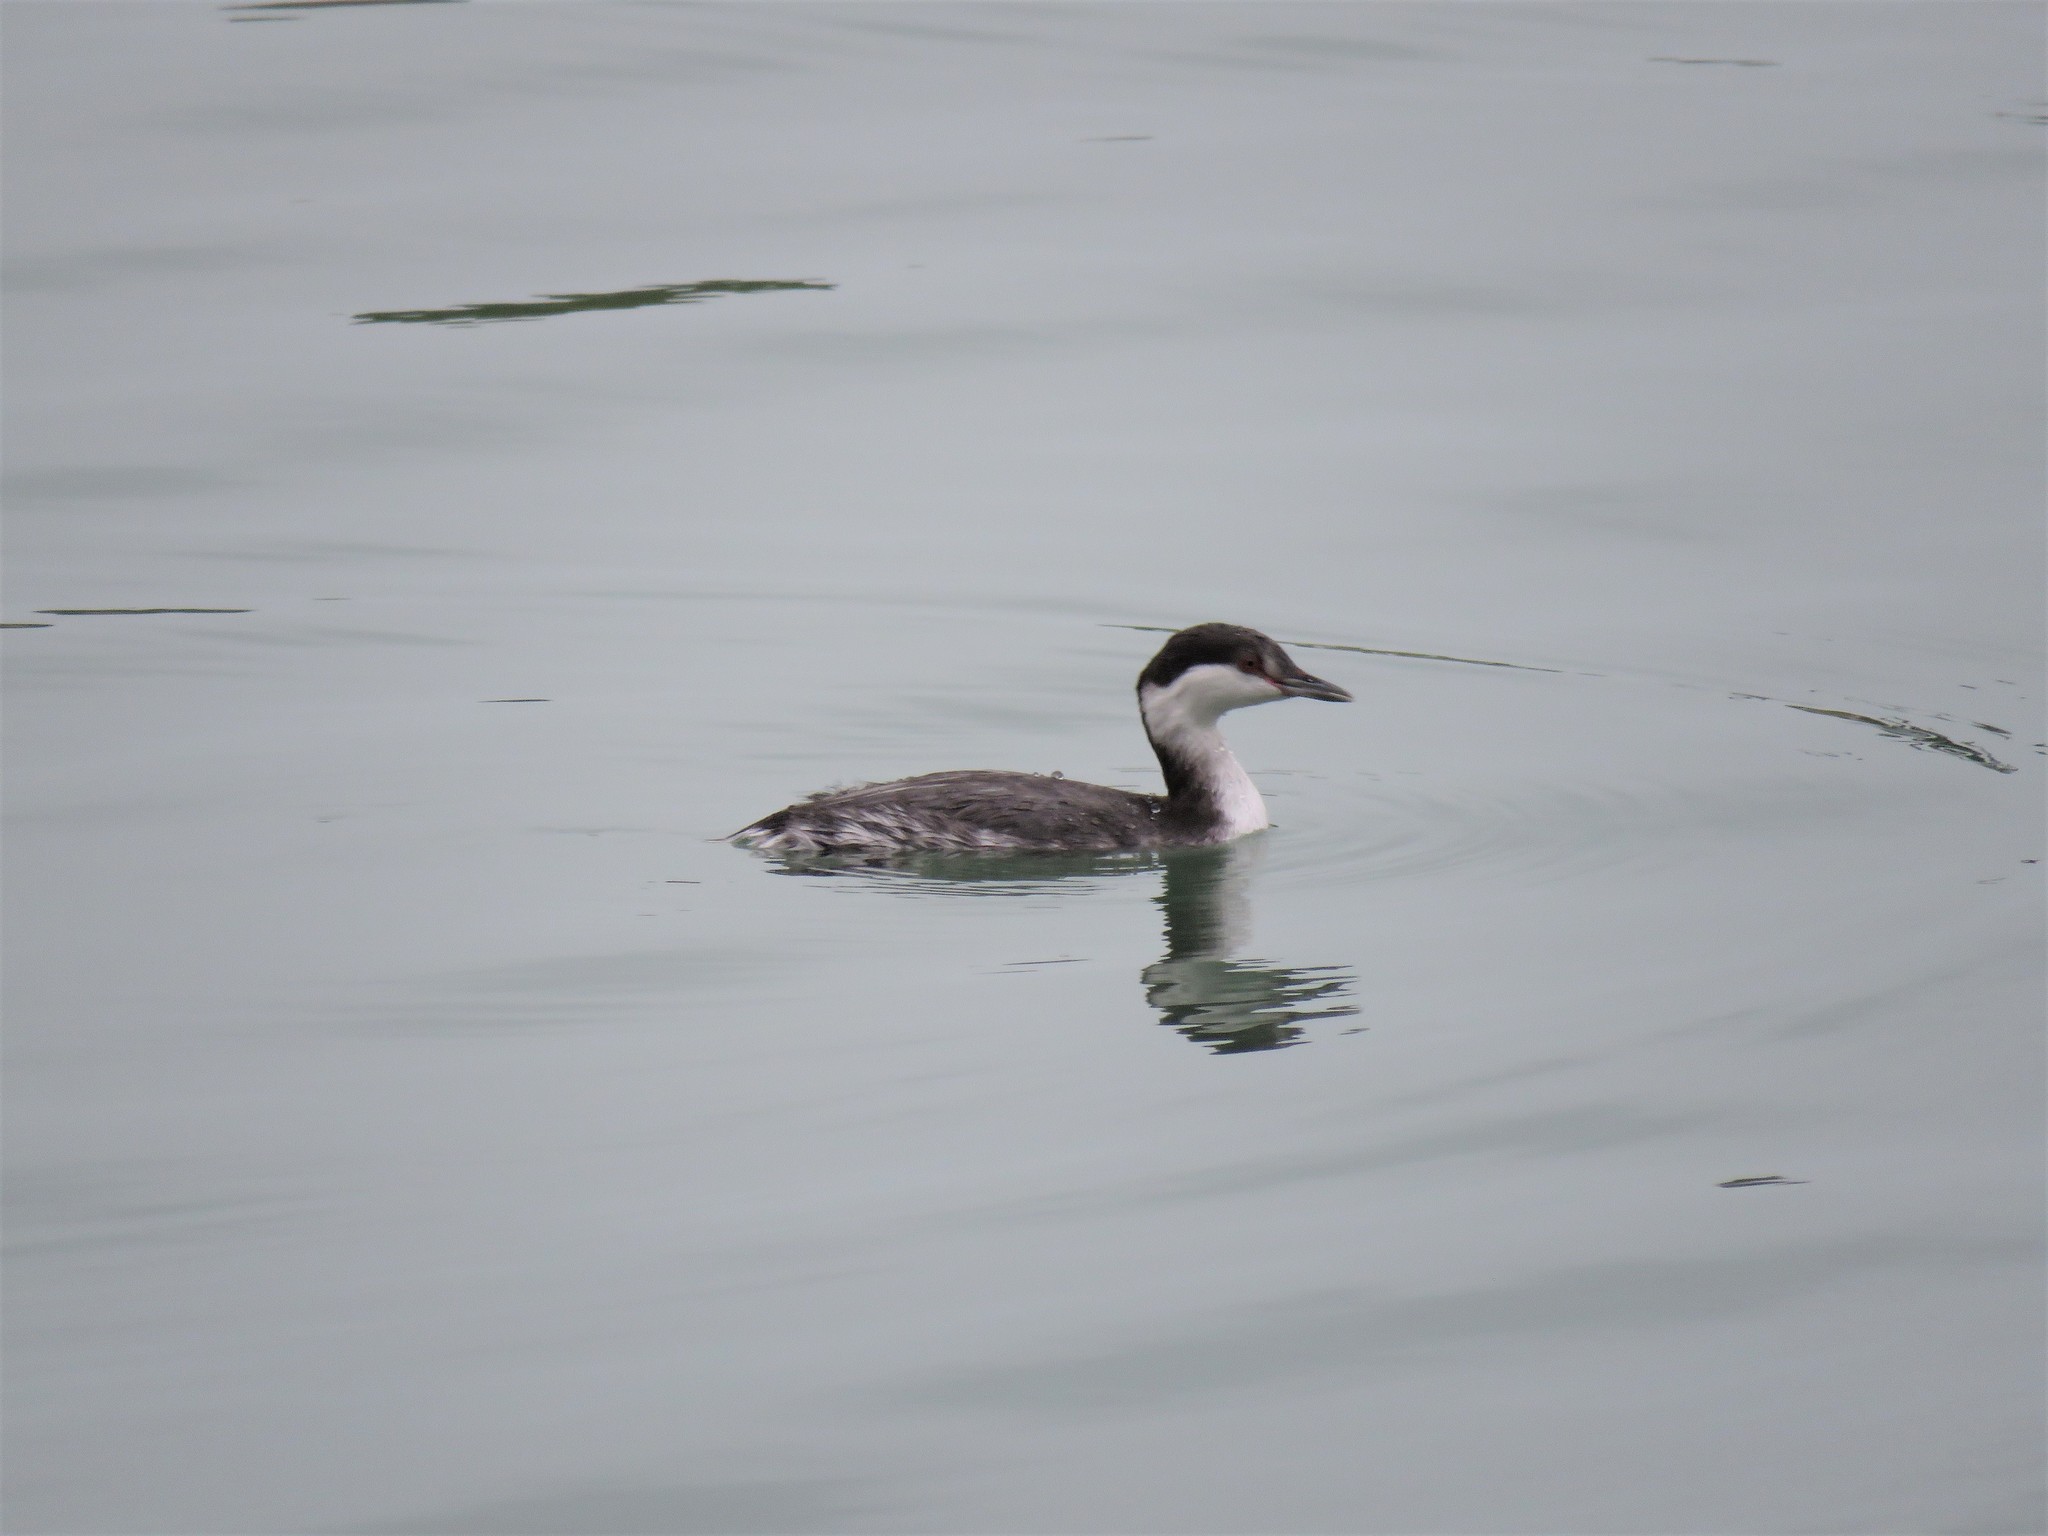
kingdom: Animalia
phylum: Chordata
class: Aves
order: Podicipediformes
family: Podicipedidae
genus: Podiceps
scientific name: Podiceps auritus
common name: Horned grebe
